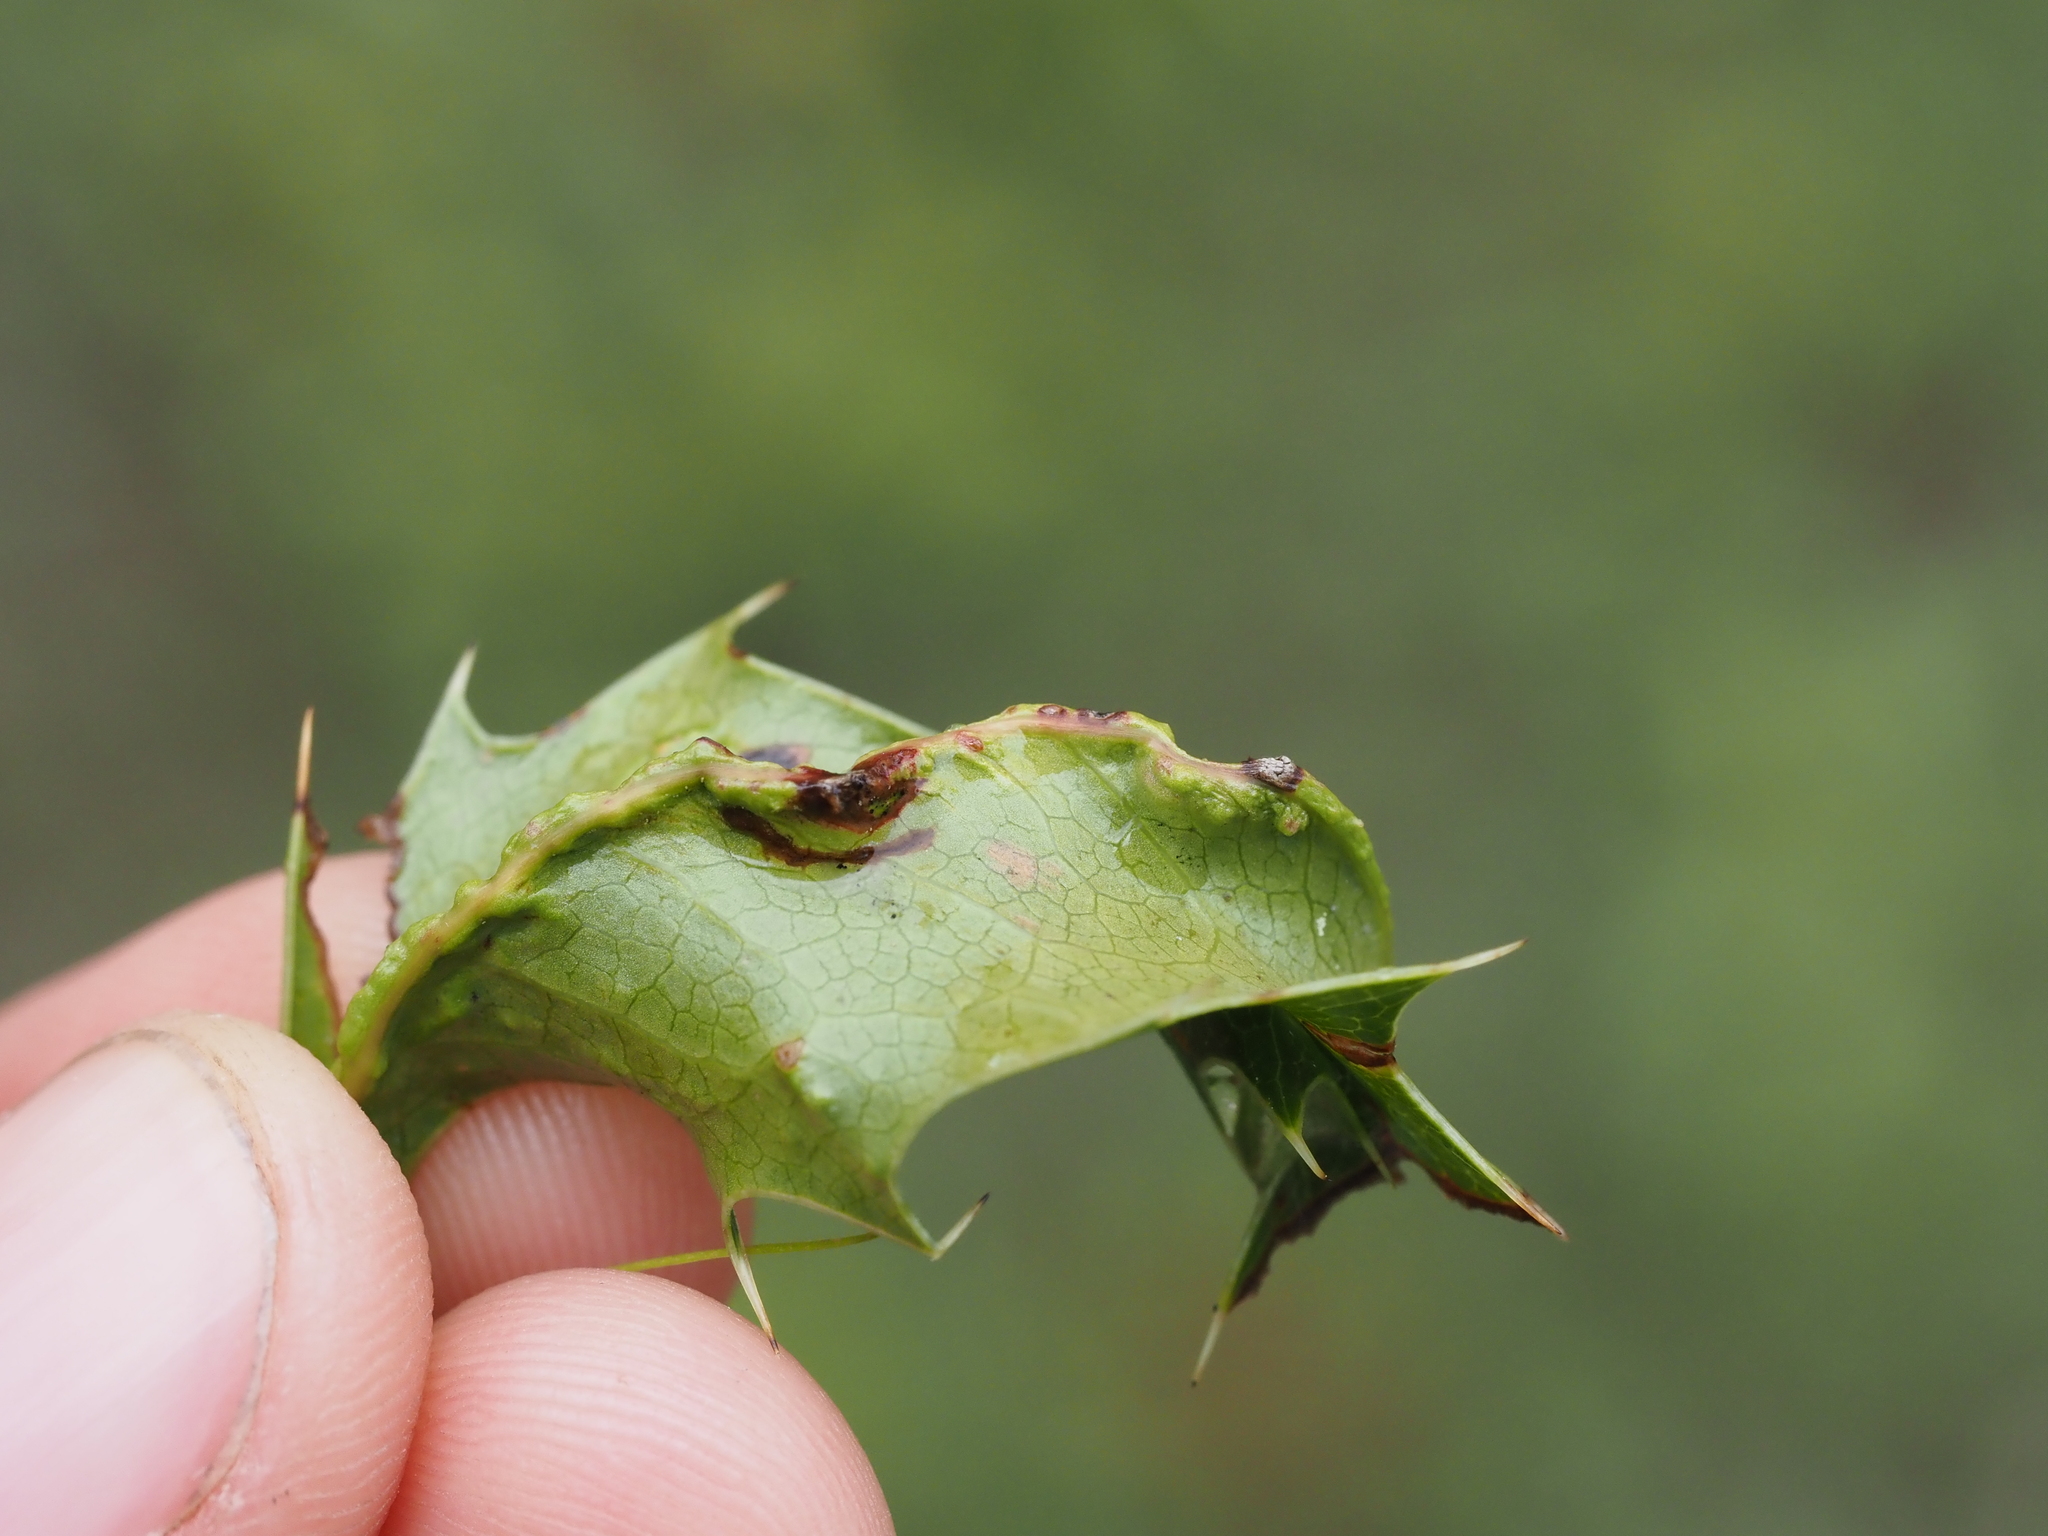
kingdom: Animalia
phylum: Arthropoda
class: Arachnida
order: Trombidiformes
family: Eriophyidae
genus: Aceria
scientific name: Aceria caliberberis
